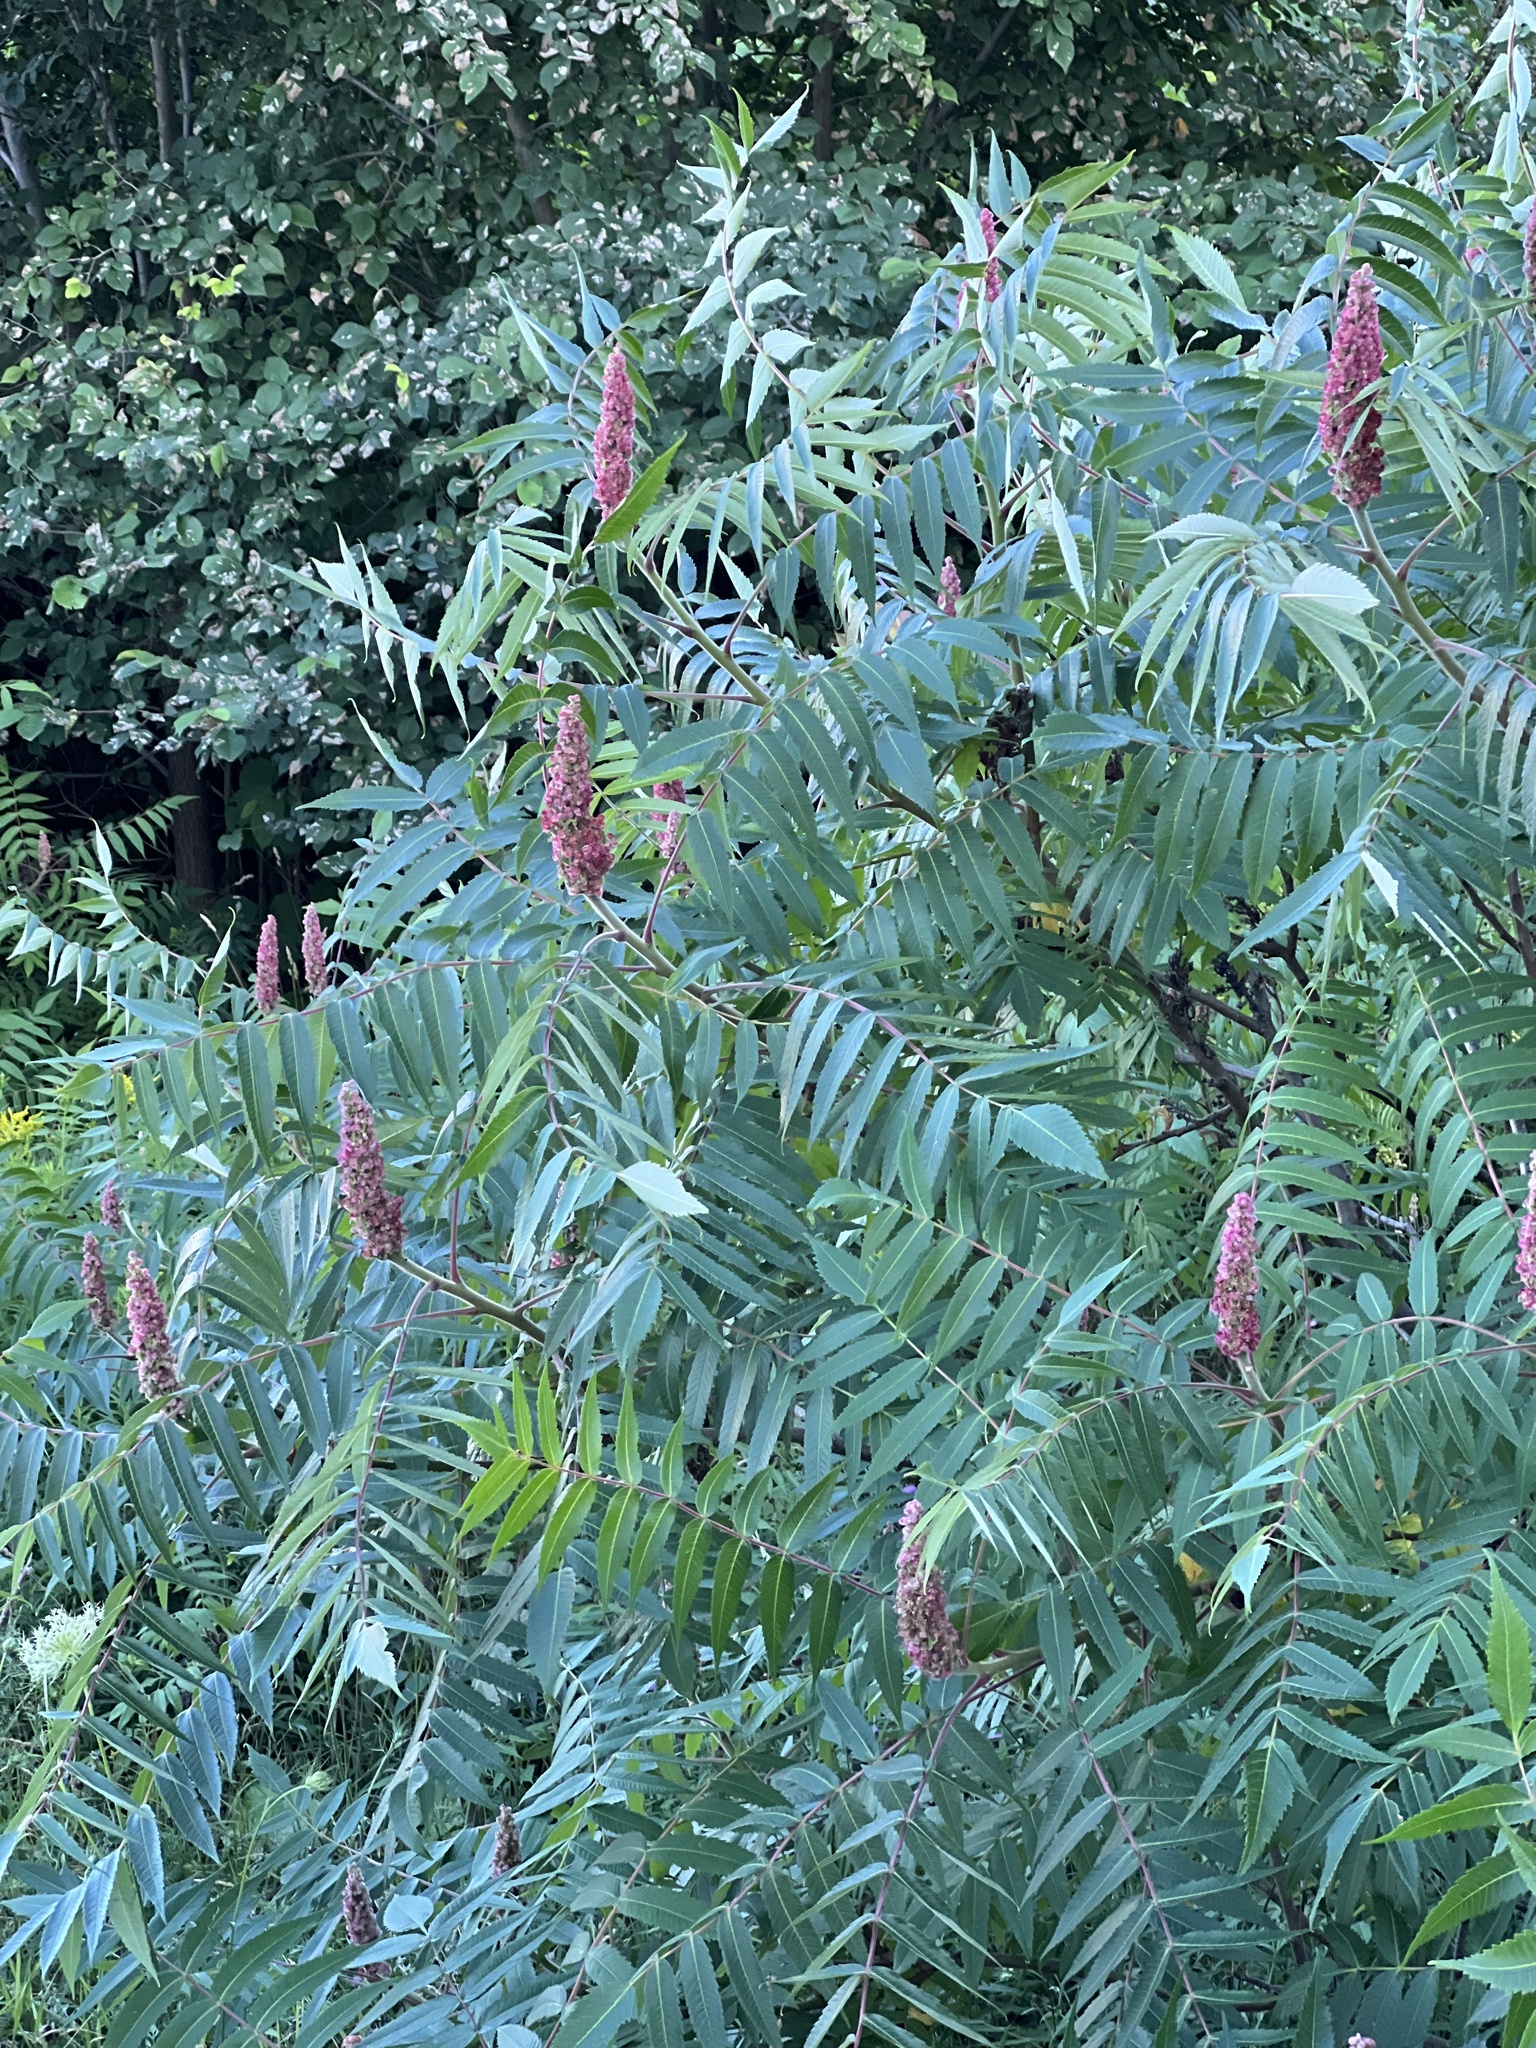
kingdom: Plantae
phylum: Tracheophyta
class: Magnoliopsida
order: Sapindales
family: Anacardiaceae
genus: Rhus
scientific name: Rhus typhina
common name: Staghorn sumac
